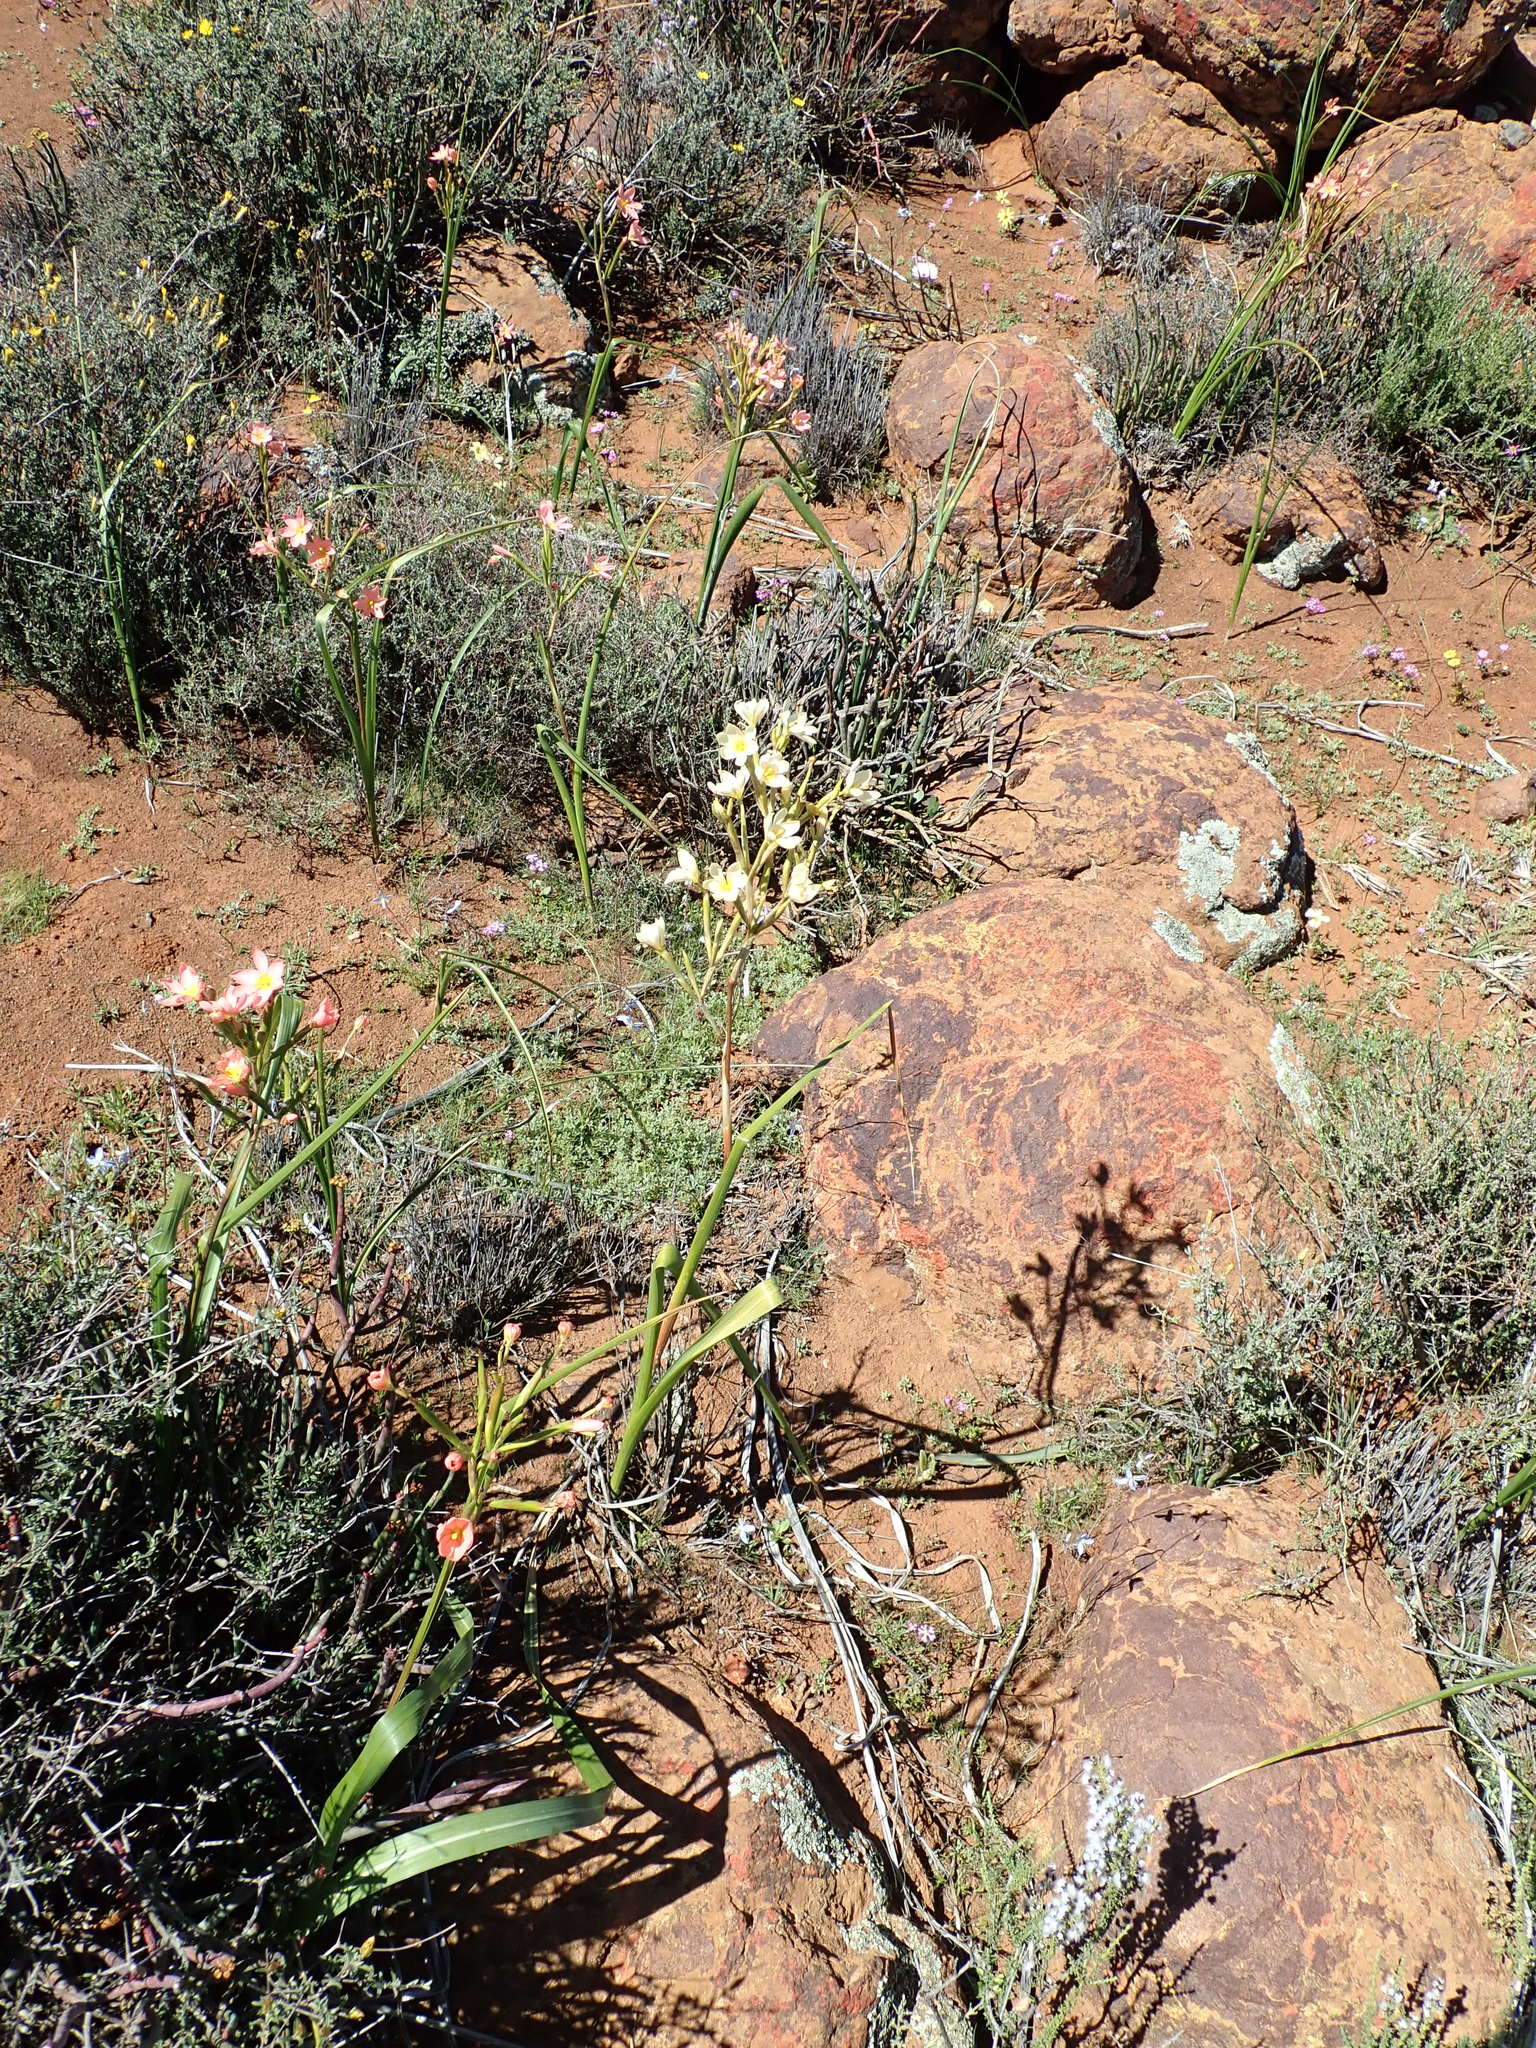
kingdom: Plantae
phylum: Tracheophyta
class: Liliopsida
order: Asparagales
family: Iridaceae
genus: Moraea
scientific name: Moraea miniata
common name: Two-leaf cape-tulip
